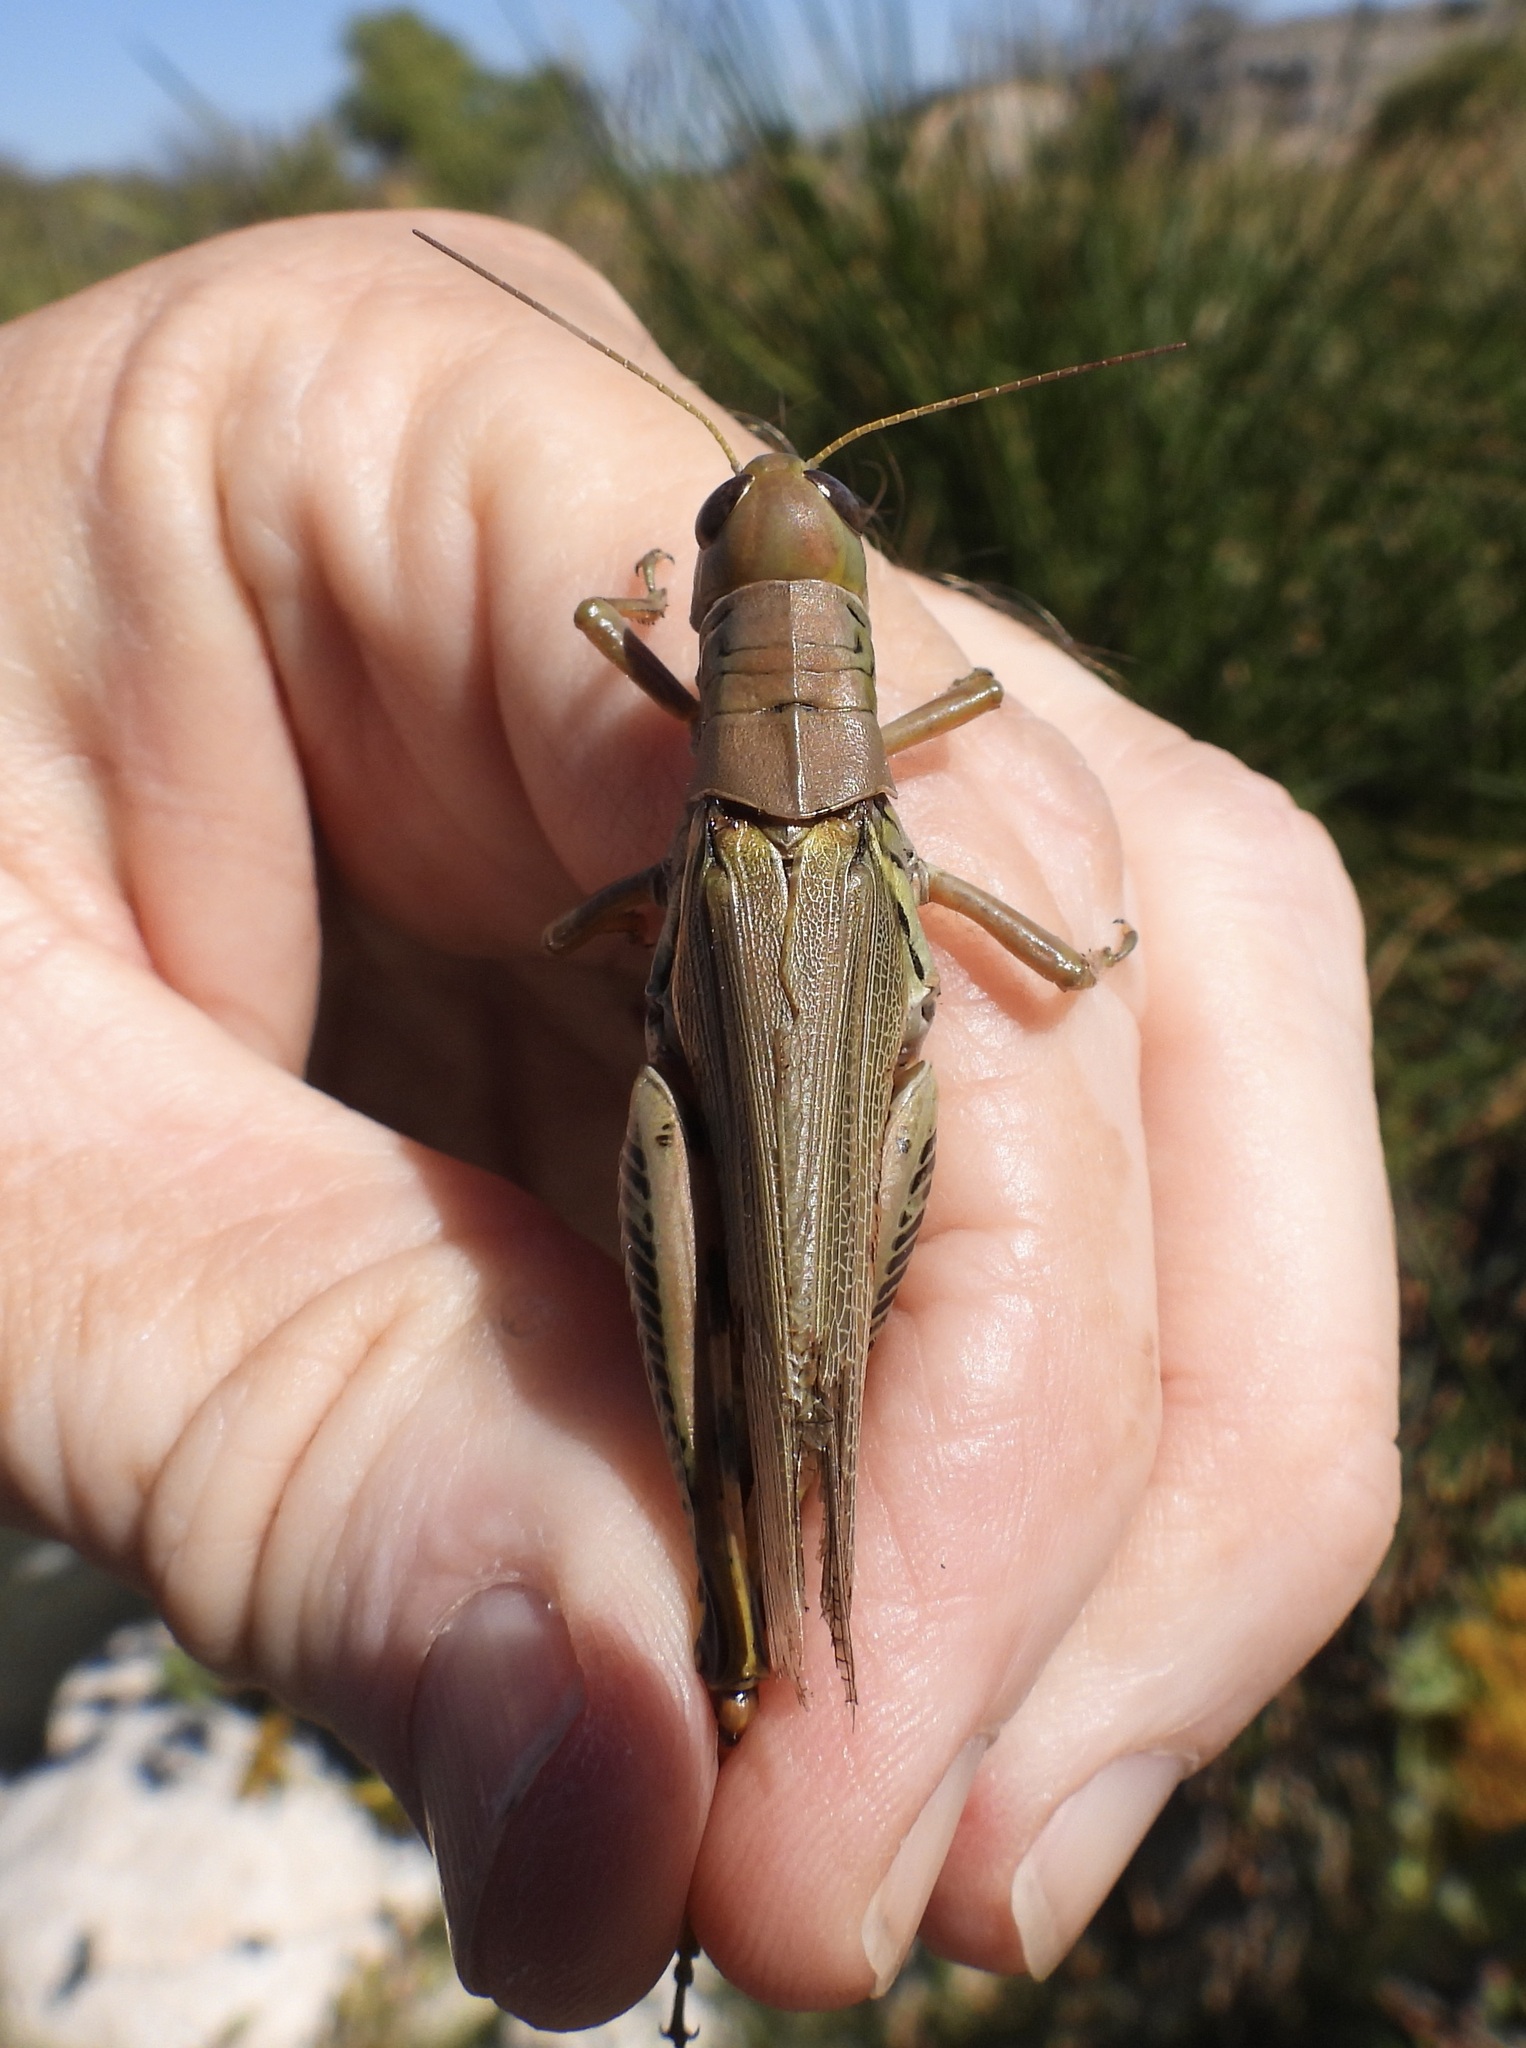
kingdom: Animalia
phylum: Arthropoda
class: Insecta
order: Orthoptera
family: Acrididae
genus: Melanoplus
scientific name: Melanoplus differentialis
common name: Differential grasshopper
